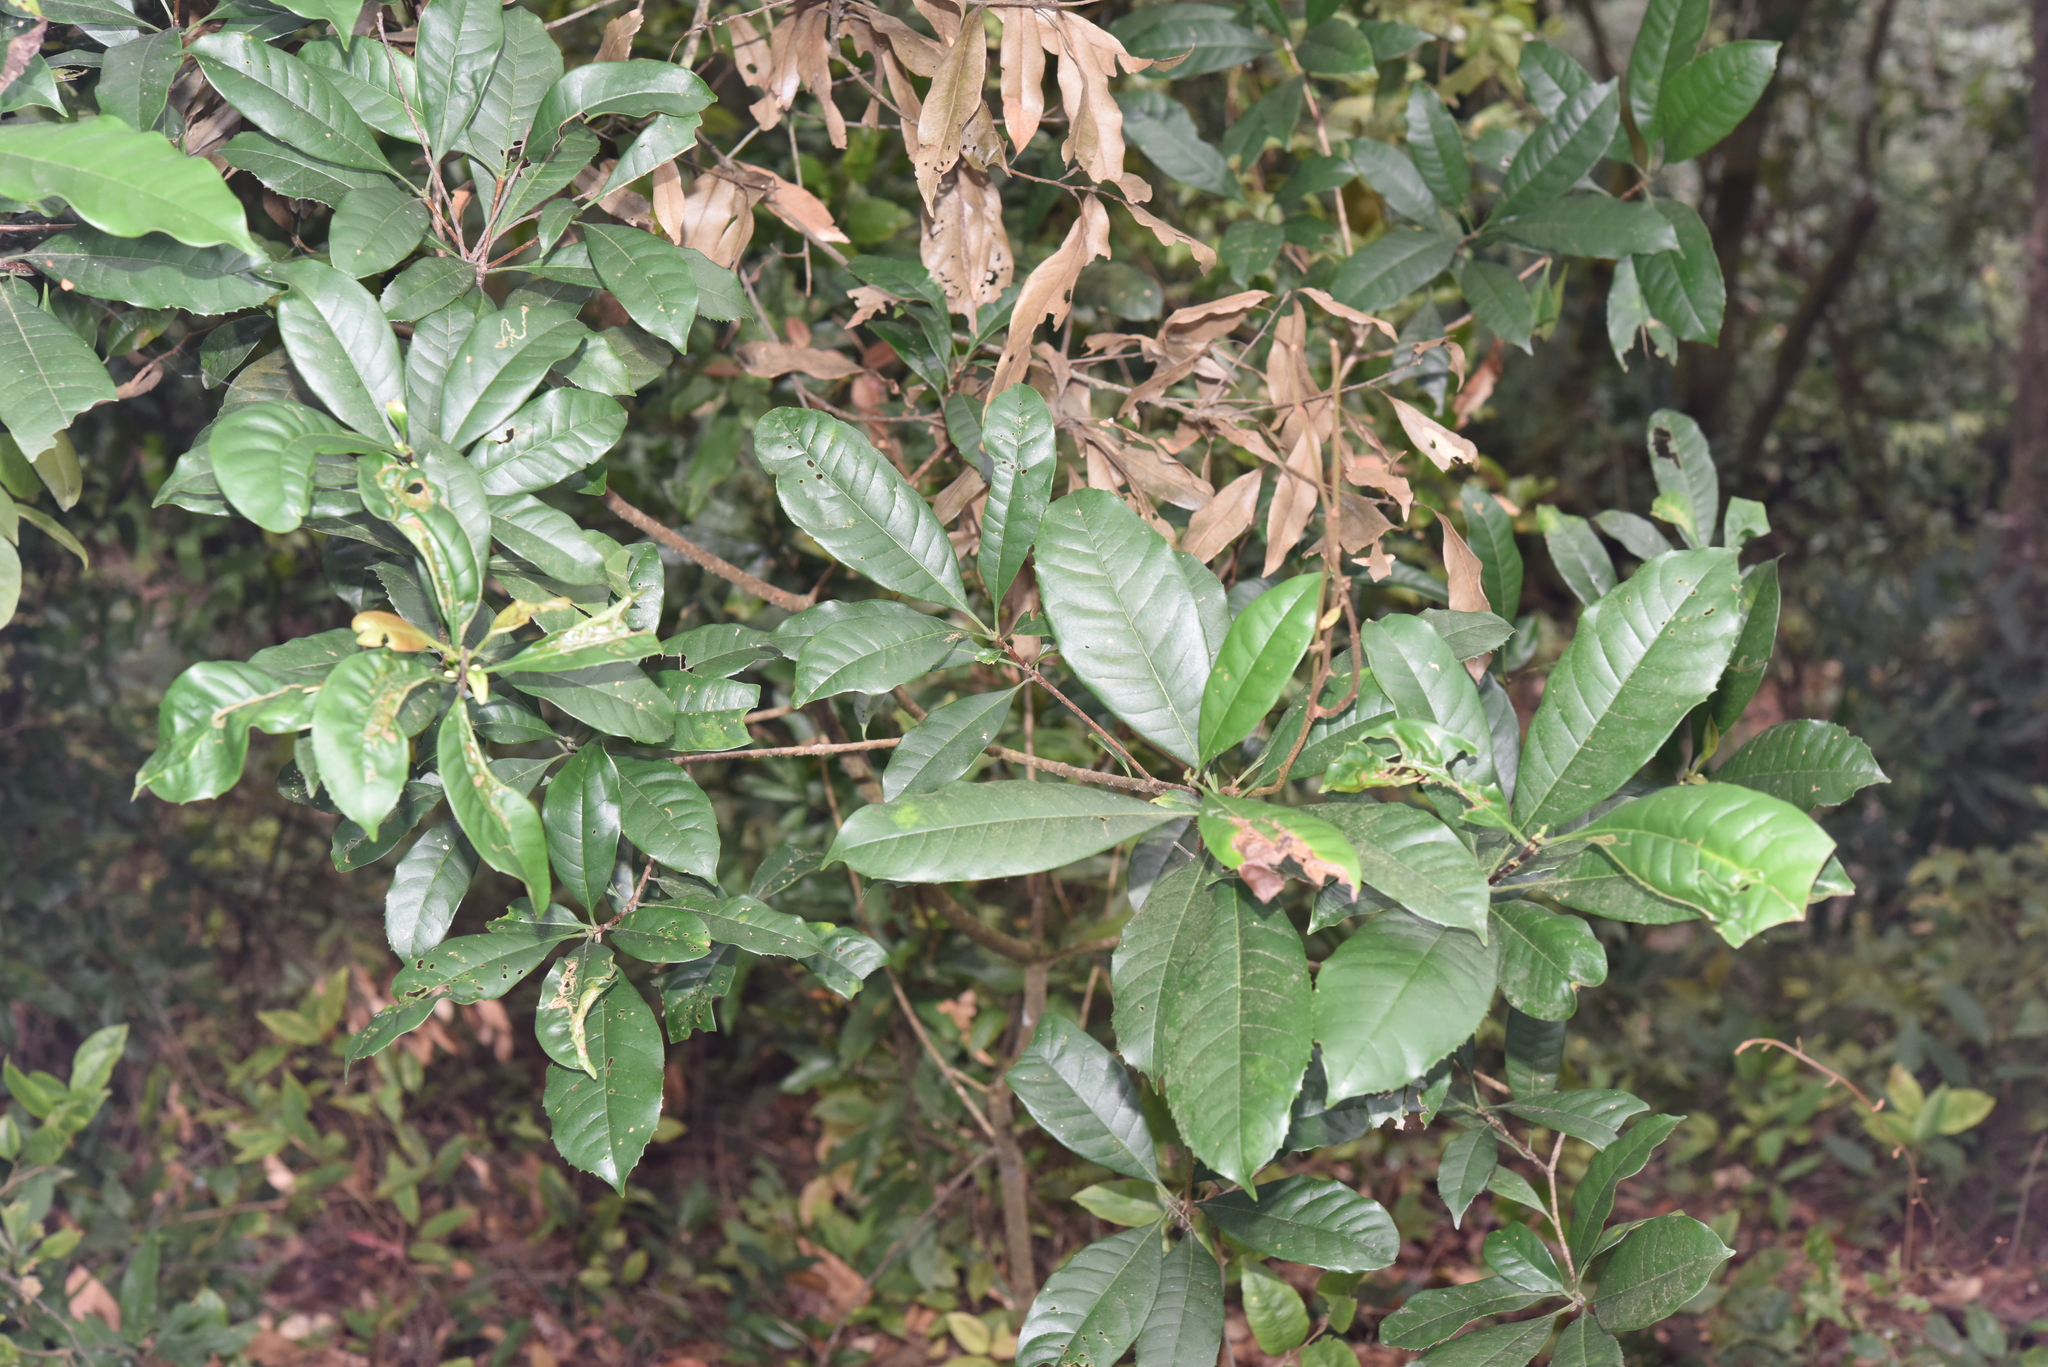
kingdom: Plantae
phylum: Tracheophyta
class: Magnoliopsida
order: Lamiales
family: Oleaceae
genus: Chengiodendron
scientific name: Chengiodendron matsumuranum
